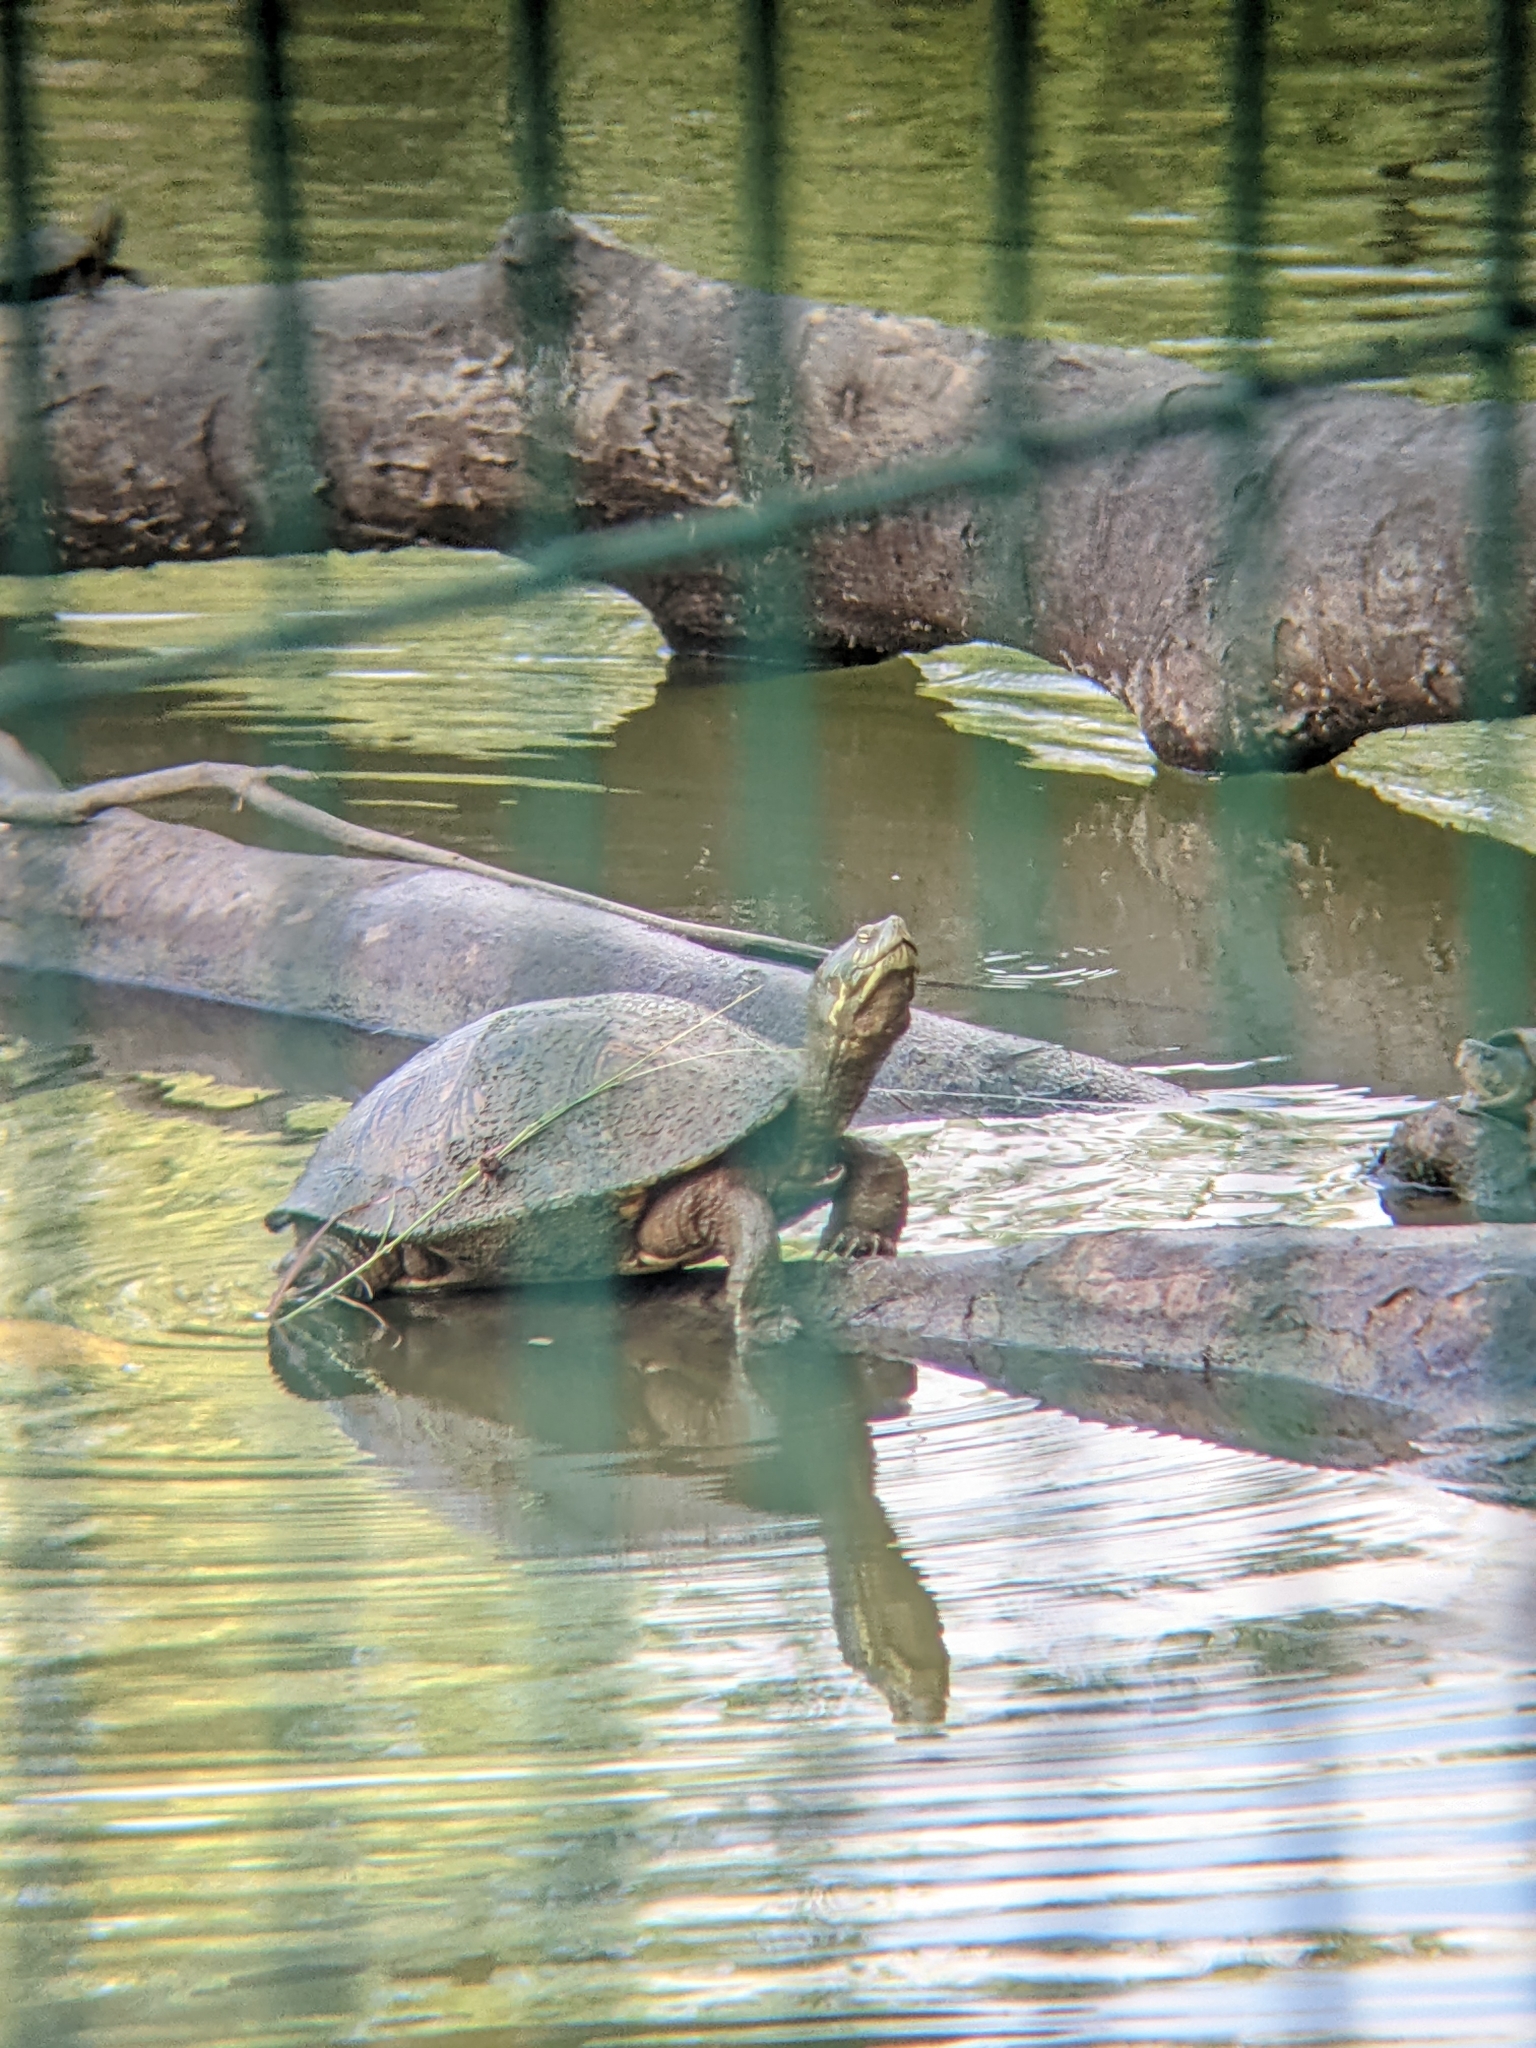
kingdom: Animalia
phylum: Chordata
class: Testudines
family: Emydidae
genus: Trachemys
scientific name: Trachemys venusta
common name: Mesoamerican slider
